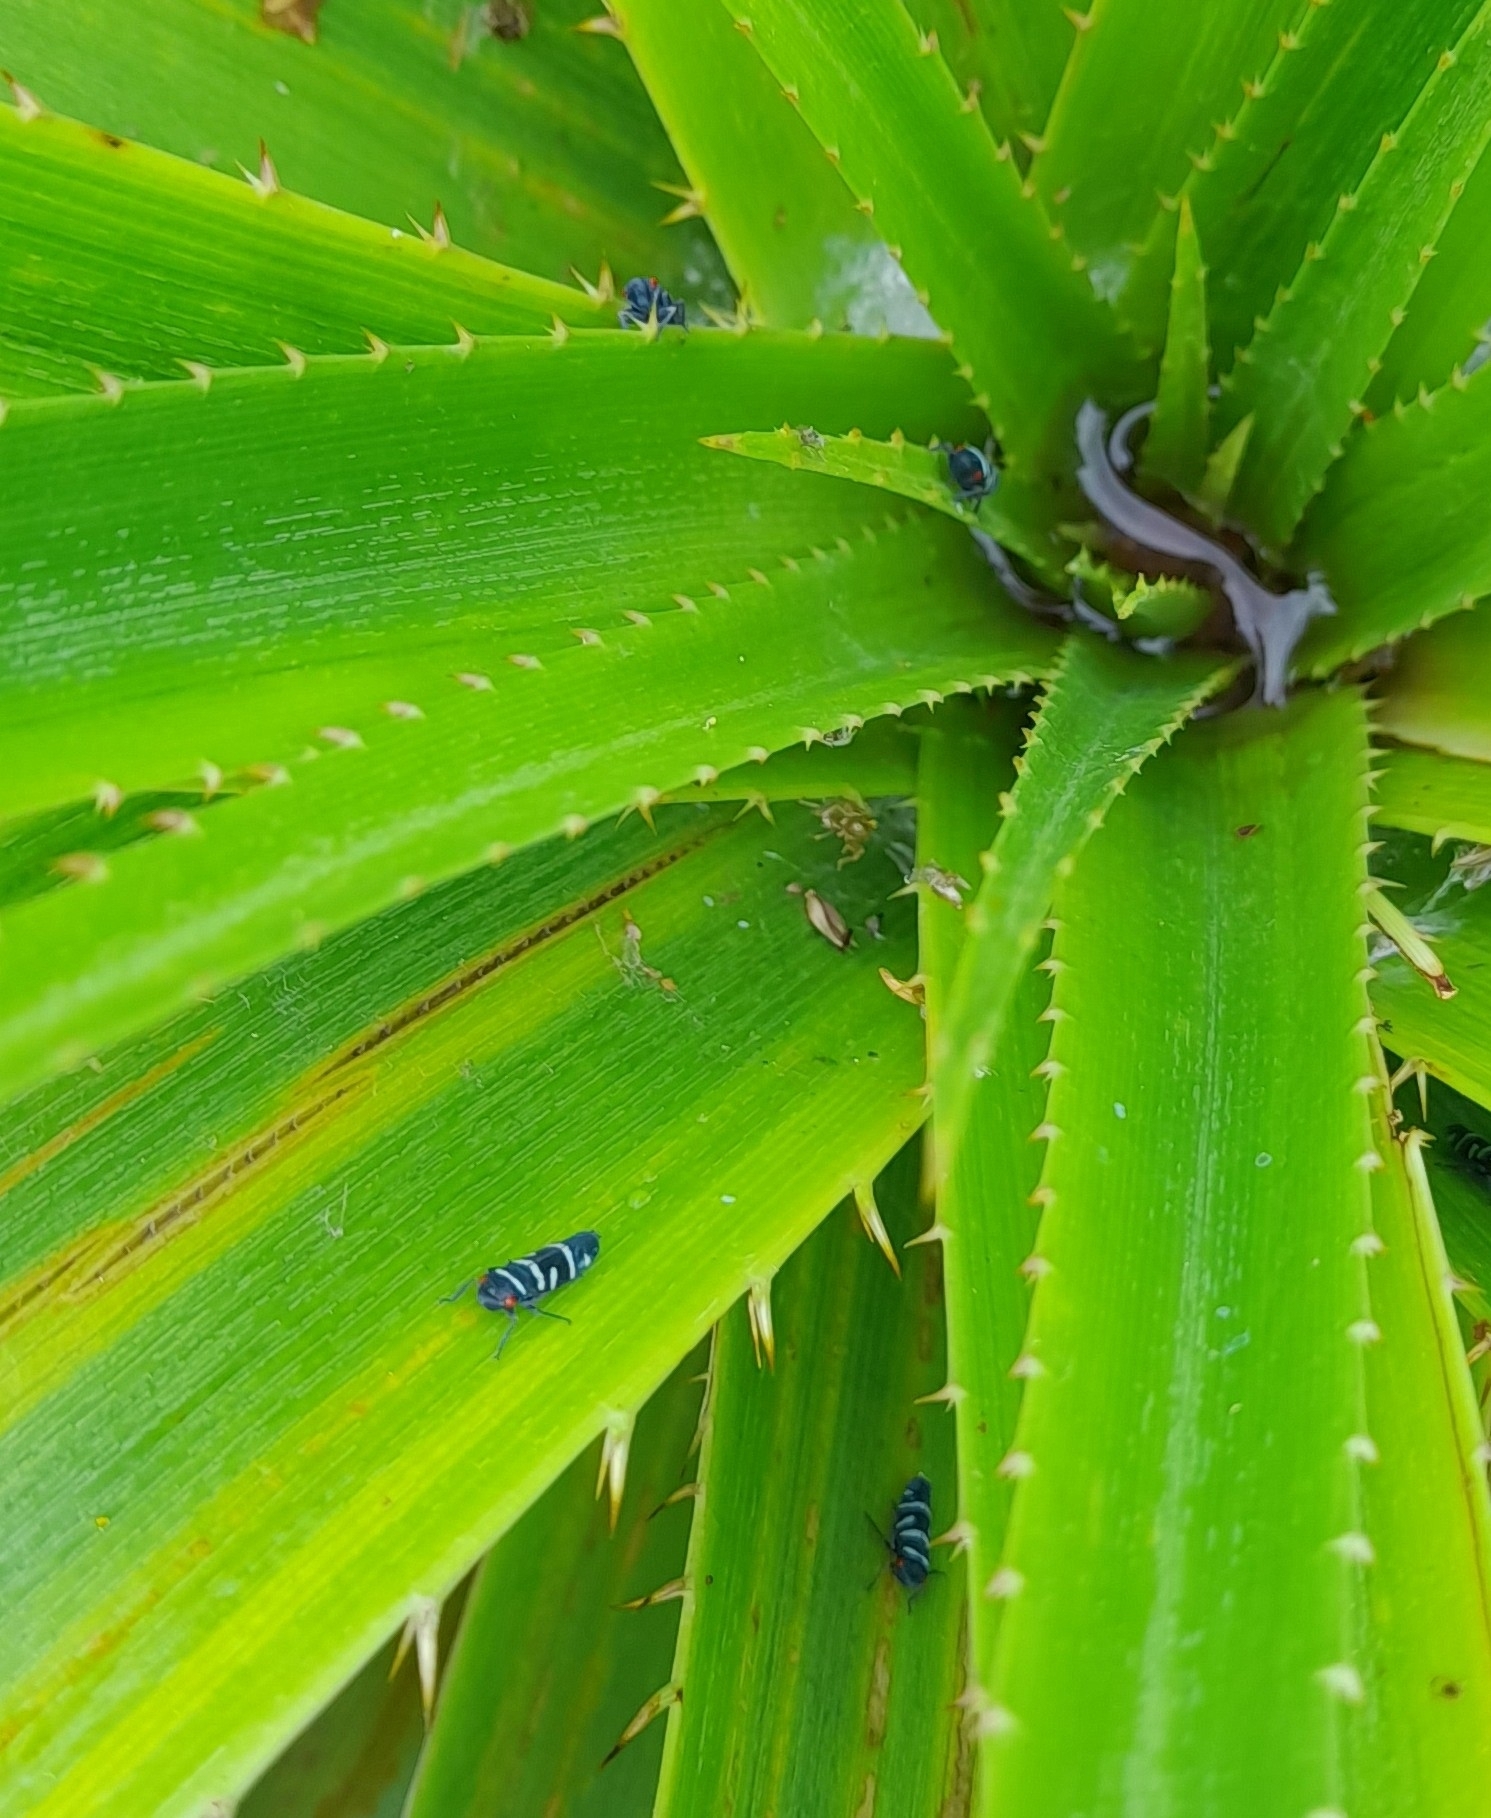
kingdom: Animalia
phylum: Arthropoda
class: Insecta
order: Hemiptera
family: Cicadellidae
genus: Balacha
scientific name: Balacha melanocephala
